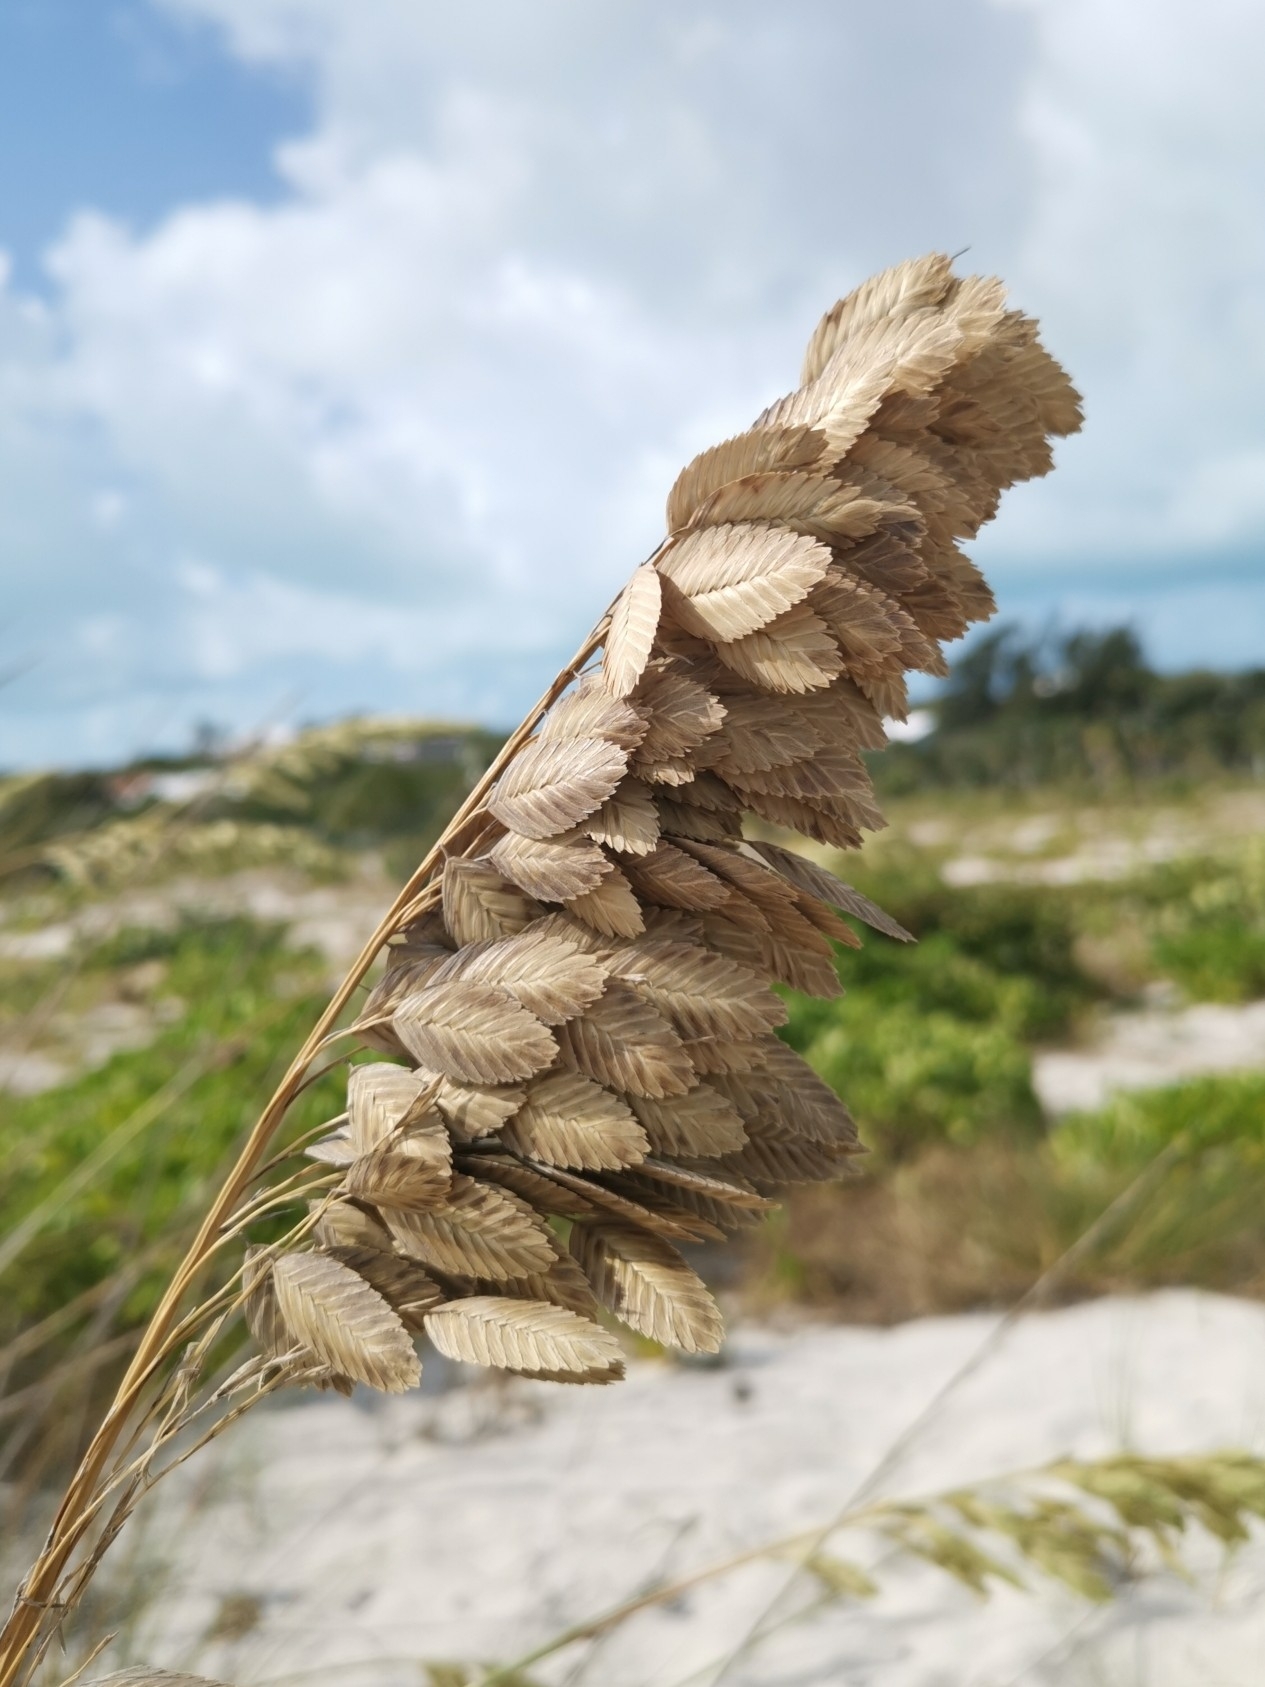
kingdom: Plantae
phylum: Tracheophyta
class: Liliopsida
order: Poales
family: Poaceae
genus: Uniola
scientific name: Uniola paniculata
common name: Seaside-oats
